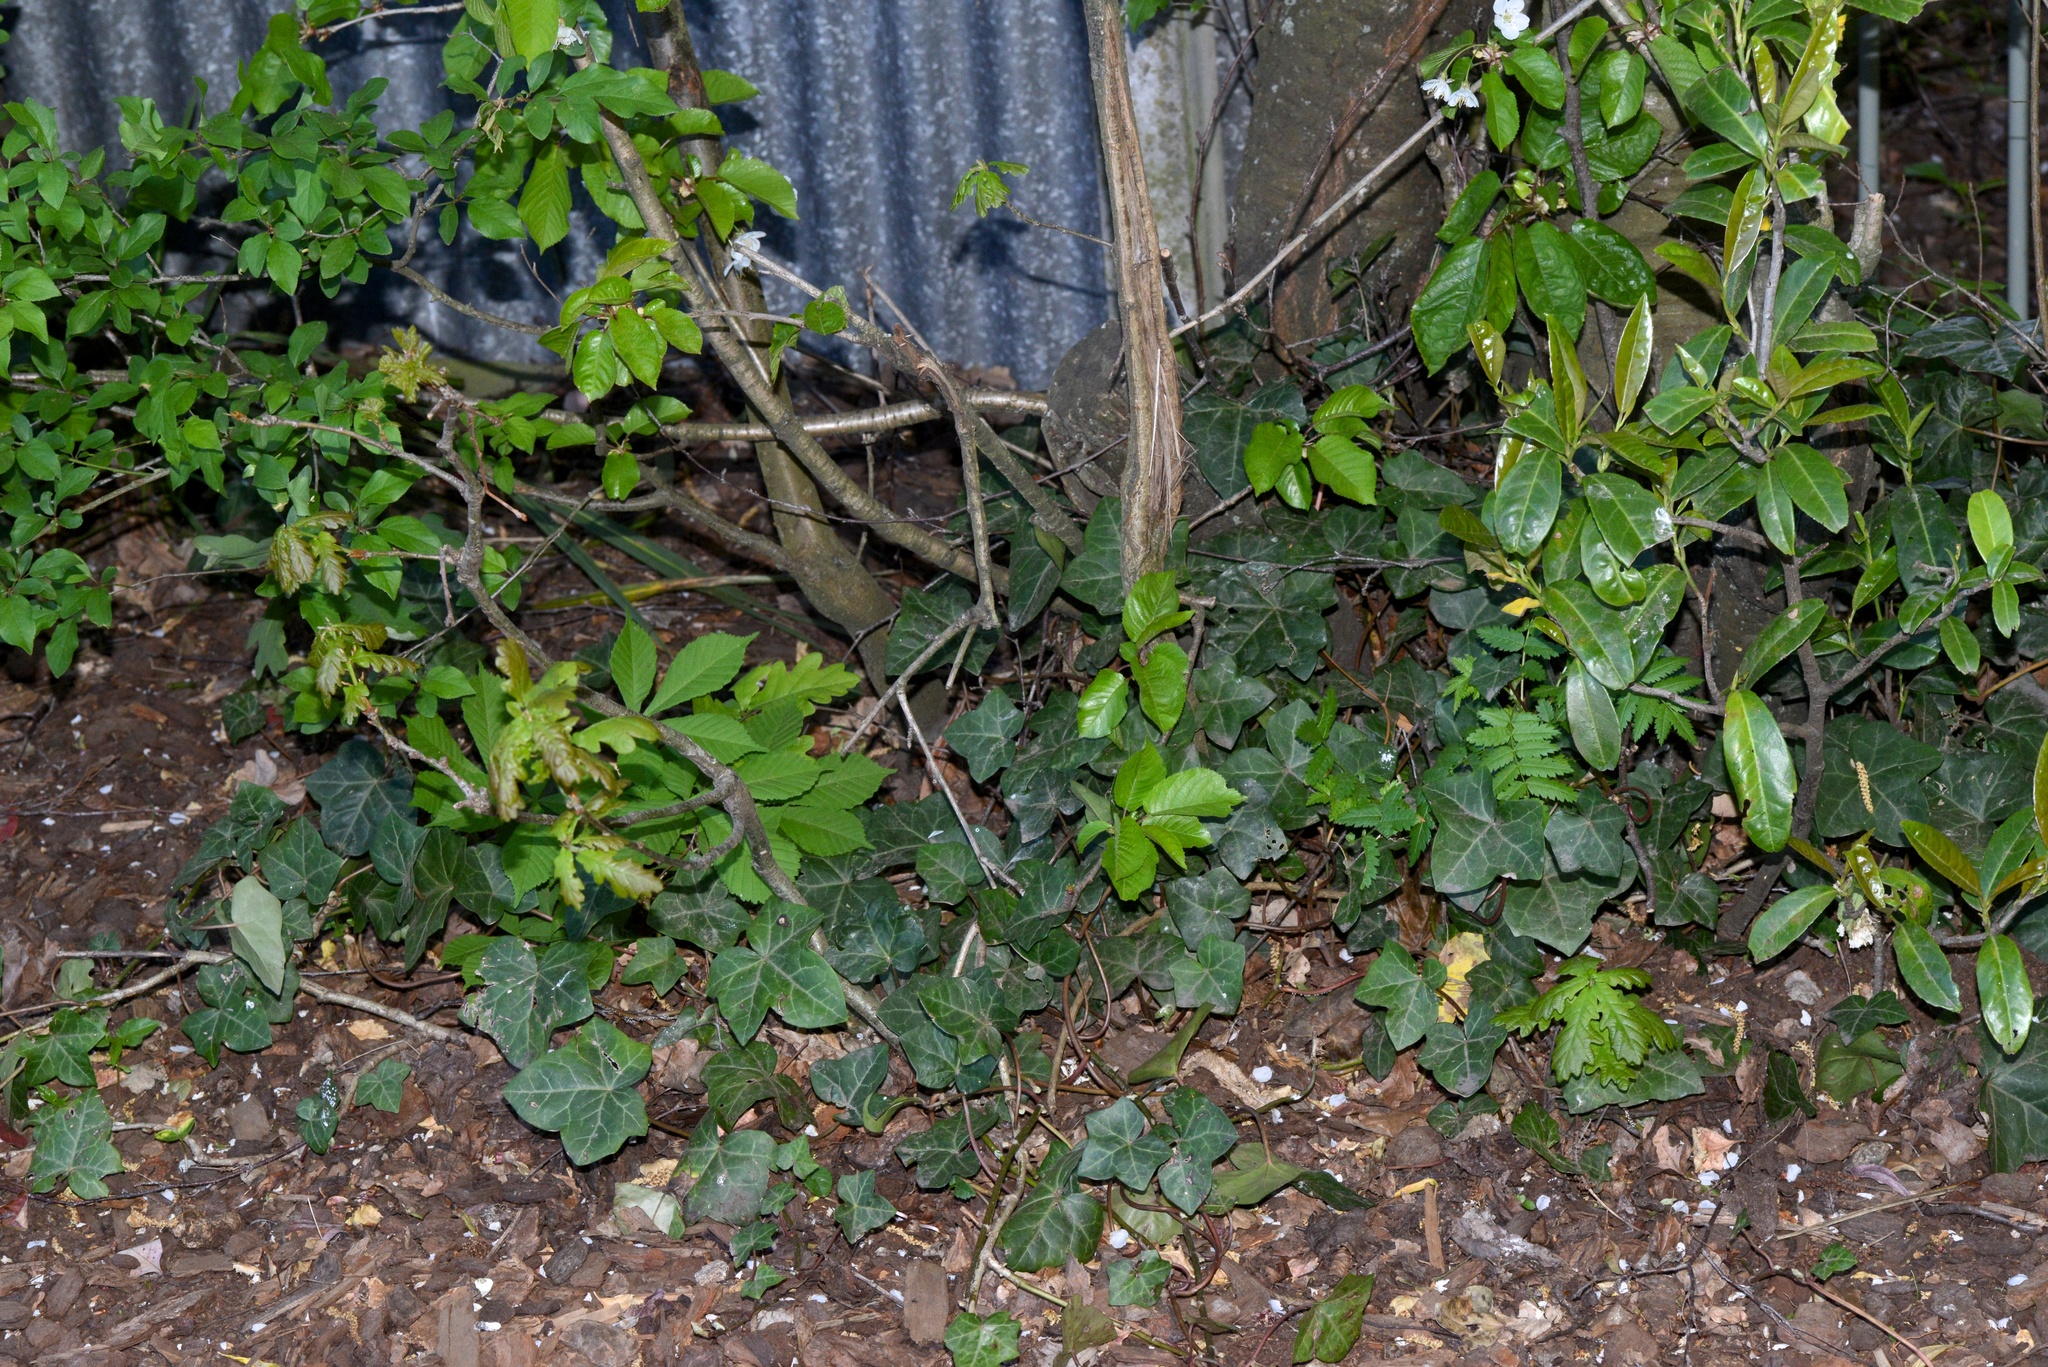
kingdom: Plantae
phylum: Tracheophyta
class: Magnoliopsida
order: Sapindales
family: Sapindaceae
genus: Aesculus
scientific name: Aesculus hippocastanum
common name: Horse-chestnut
